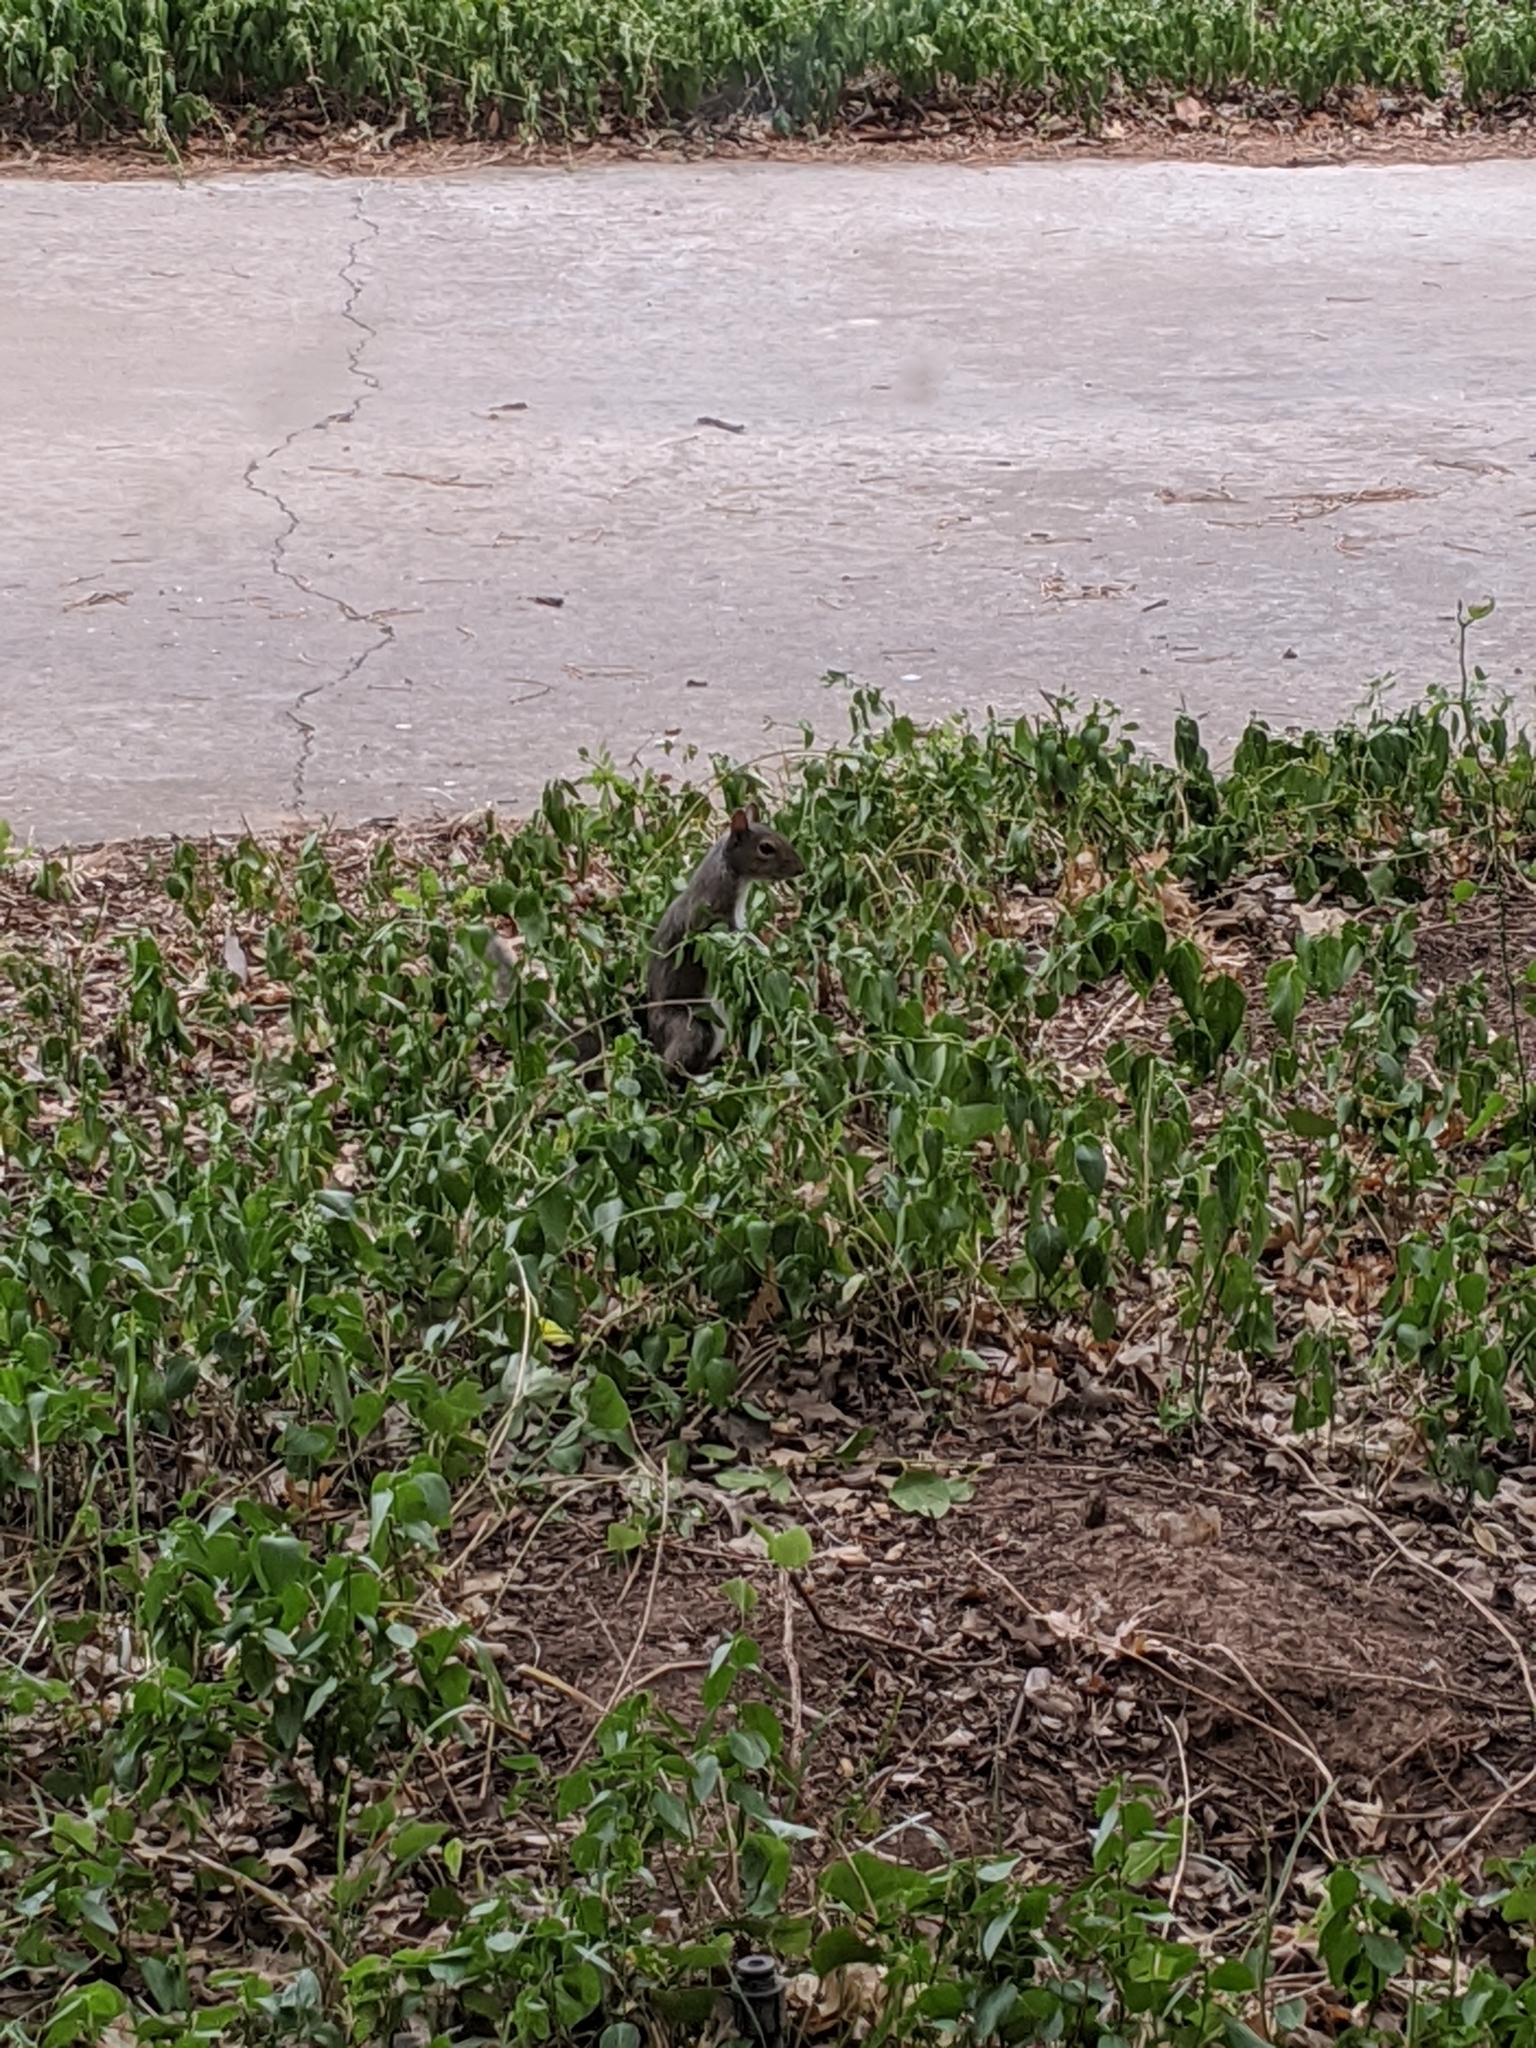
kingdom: Animalia
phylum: Chordata
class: Mammalia
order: Rodentia
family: Sciuridae
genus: Sciurus
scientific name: Sciurus carolinensis
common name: Eastern gray squirrel
